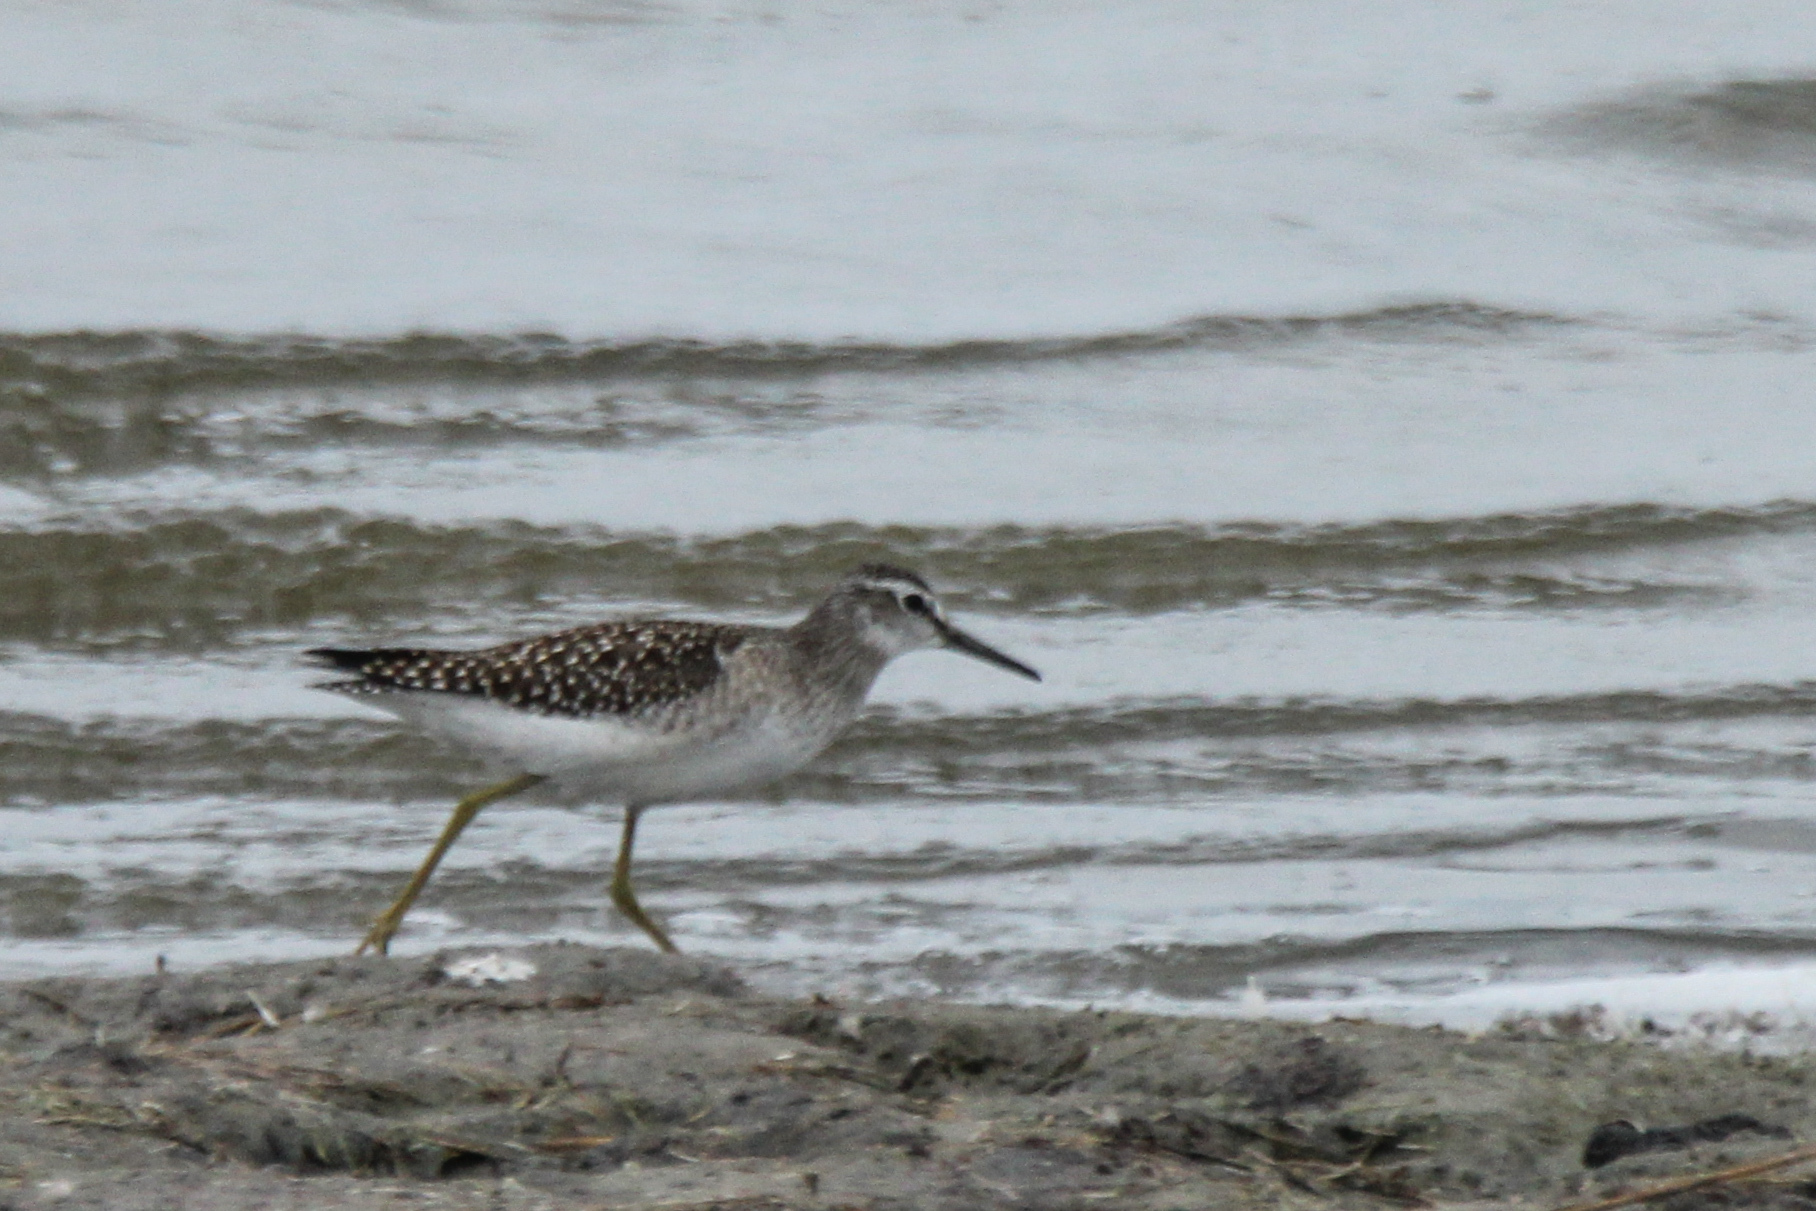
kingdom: Animalia
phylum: Chordata
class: Aves
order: Charadriiformes
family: Scolopacidae
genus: Tringa
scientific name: Tringa glareola
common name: Wood sandpiper
